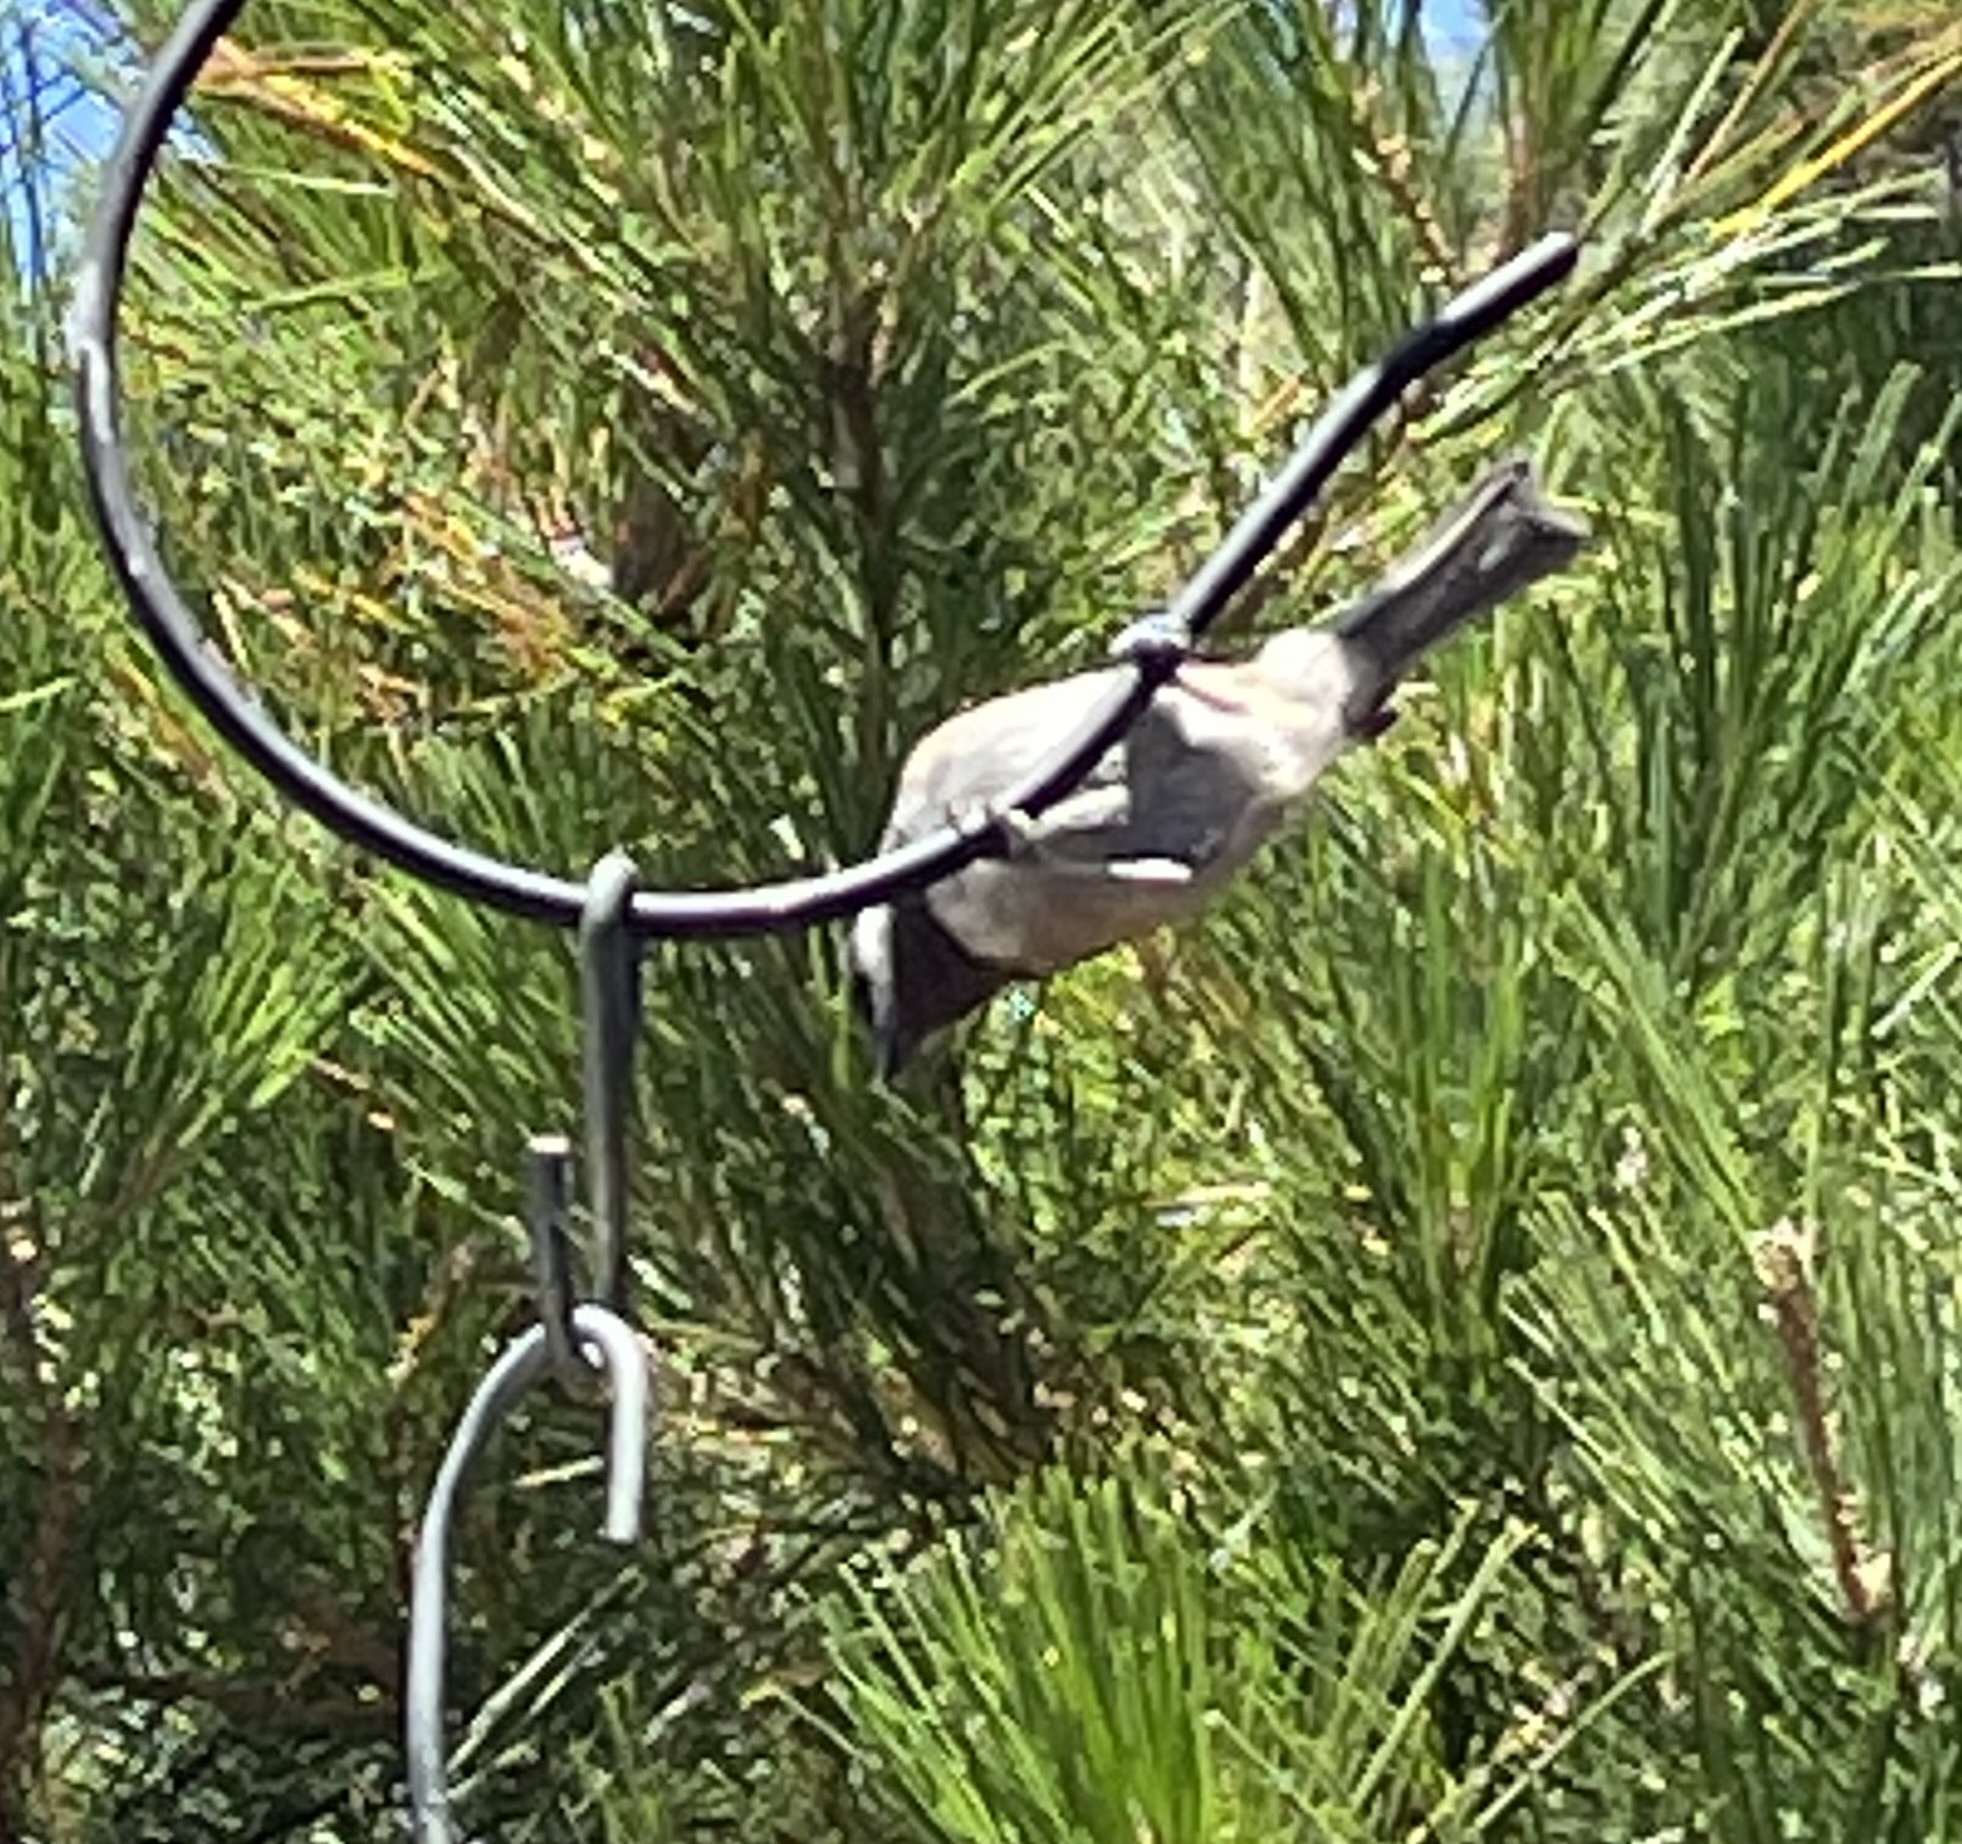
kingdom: Animalia
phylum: Chordata
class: Aves
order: Passeriformes
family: Paridae
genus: Poecile
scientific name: Poecile rufescens
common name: Chestnut-backed chickadee
